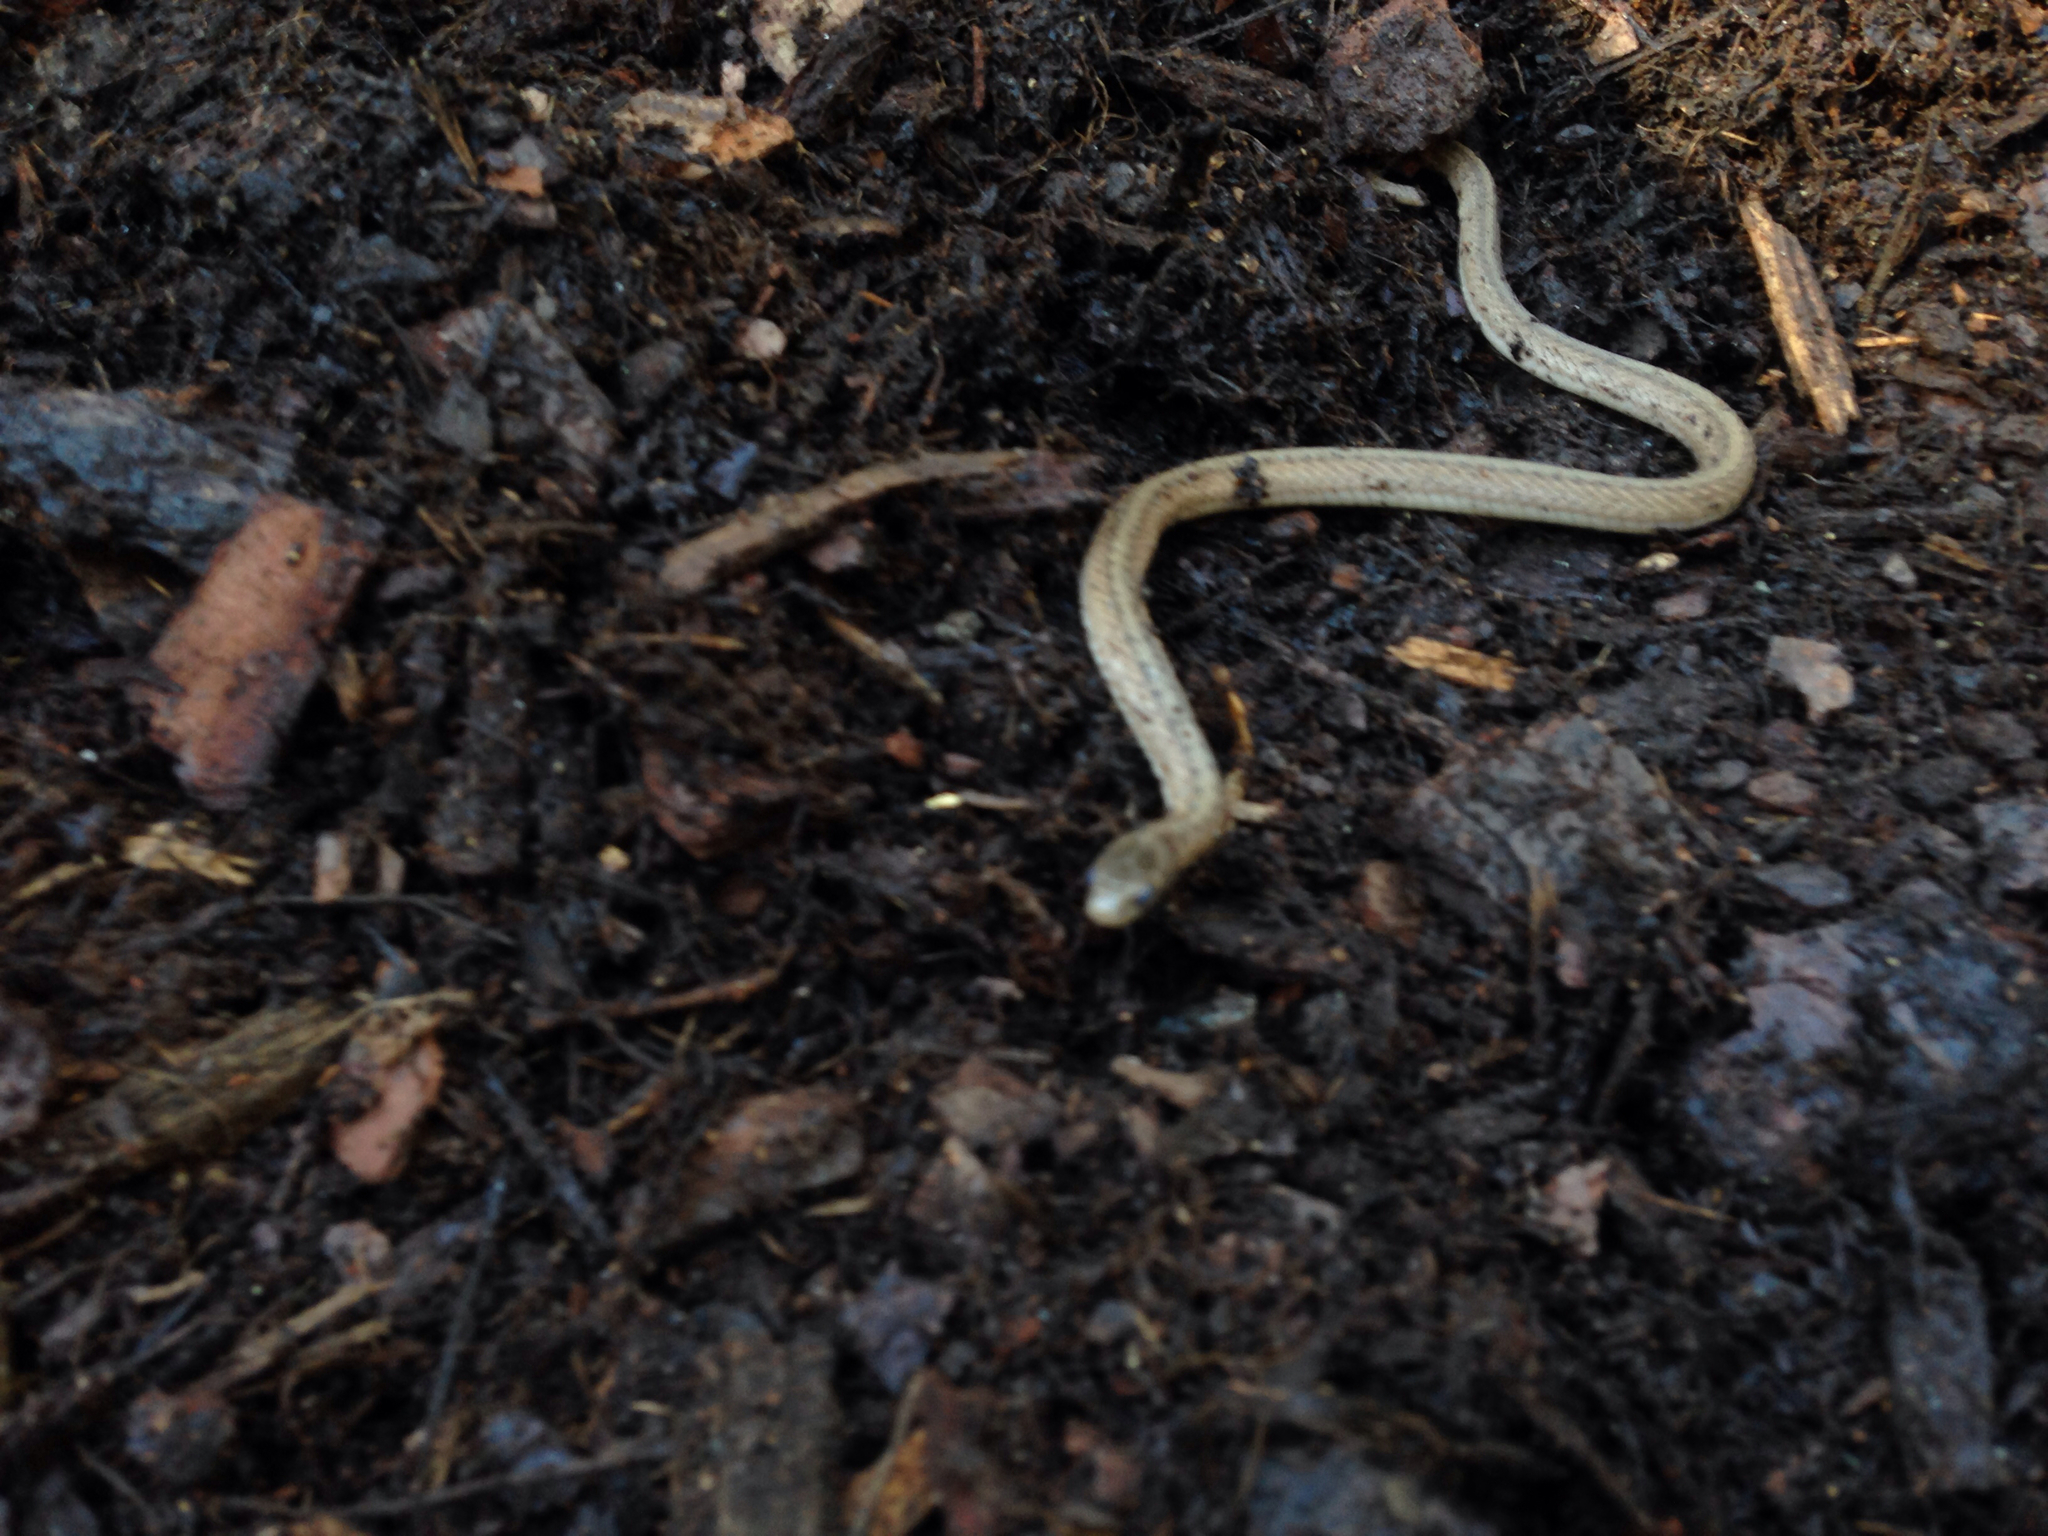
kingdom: Animalia
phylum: Chordata
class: Squamata
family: Colubridae
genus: Storeria
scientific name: Storeria dekayi
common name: (dekay’s) brown snake
